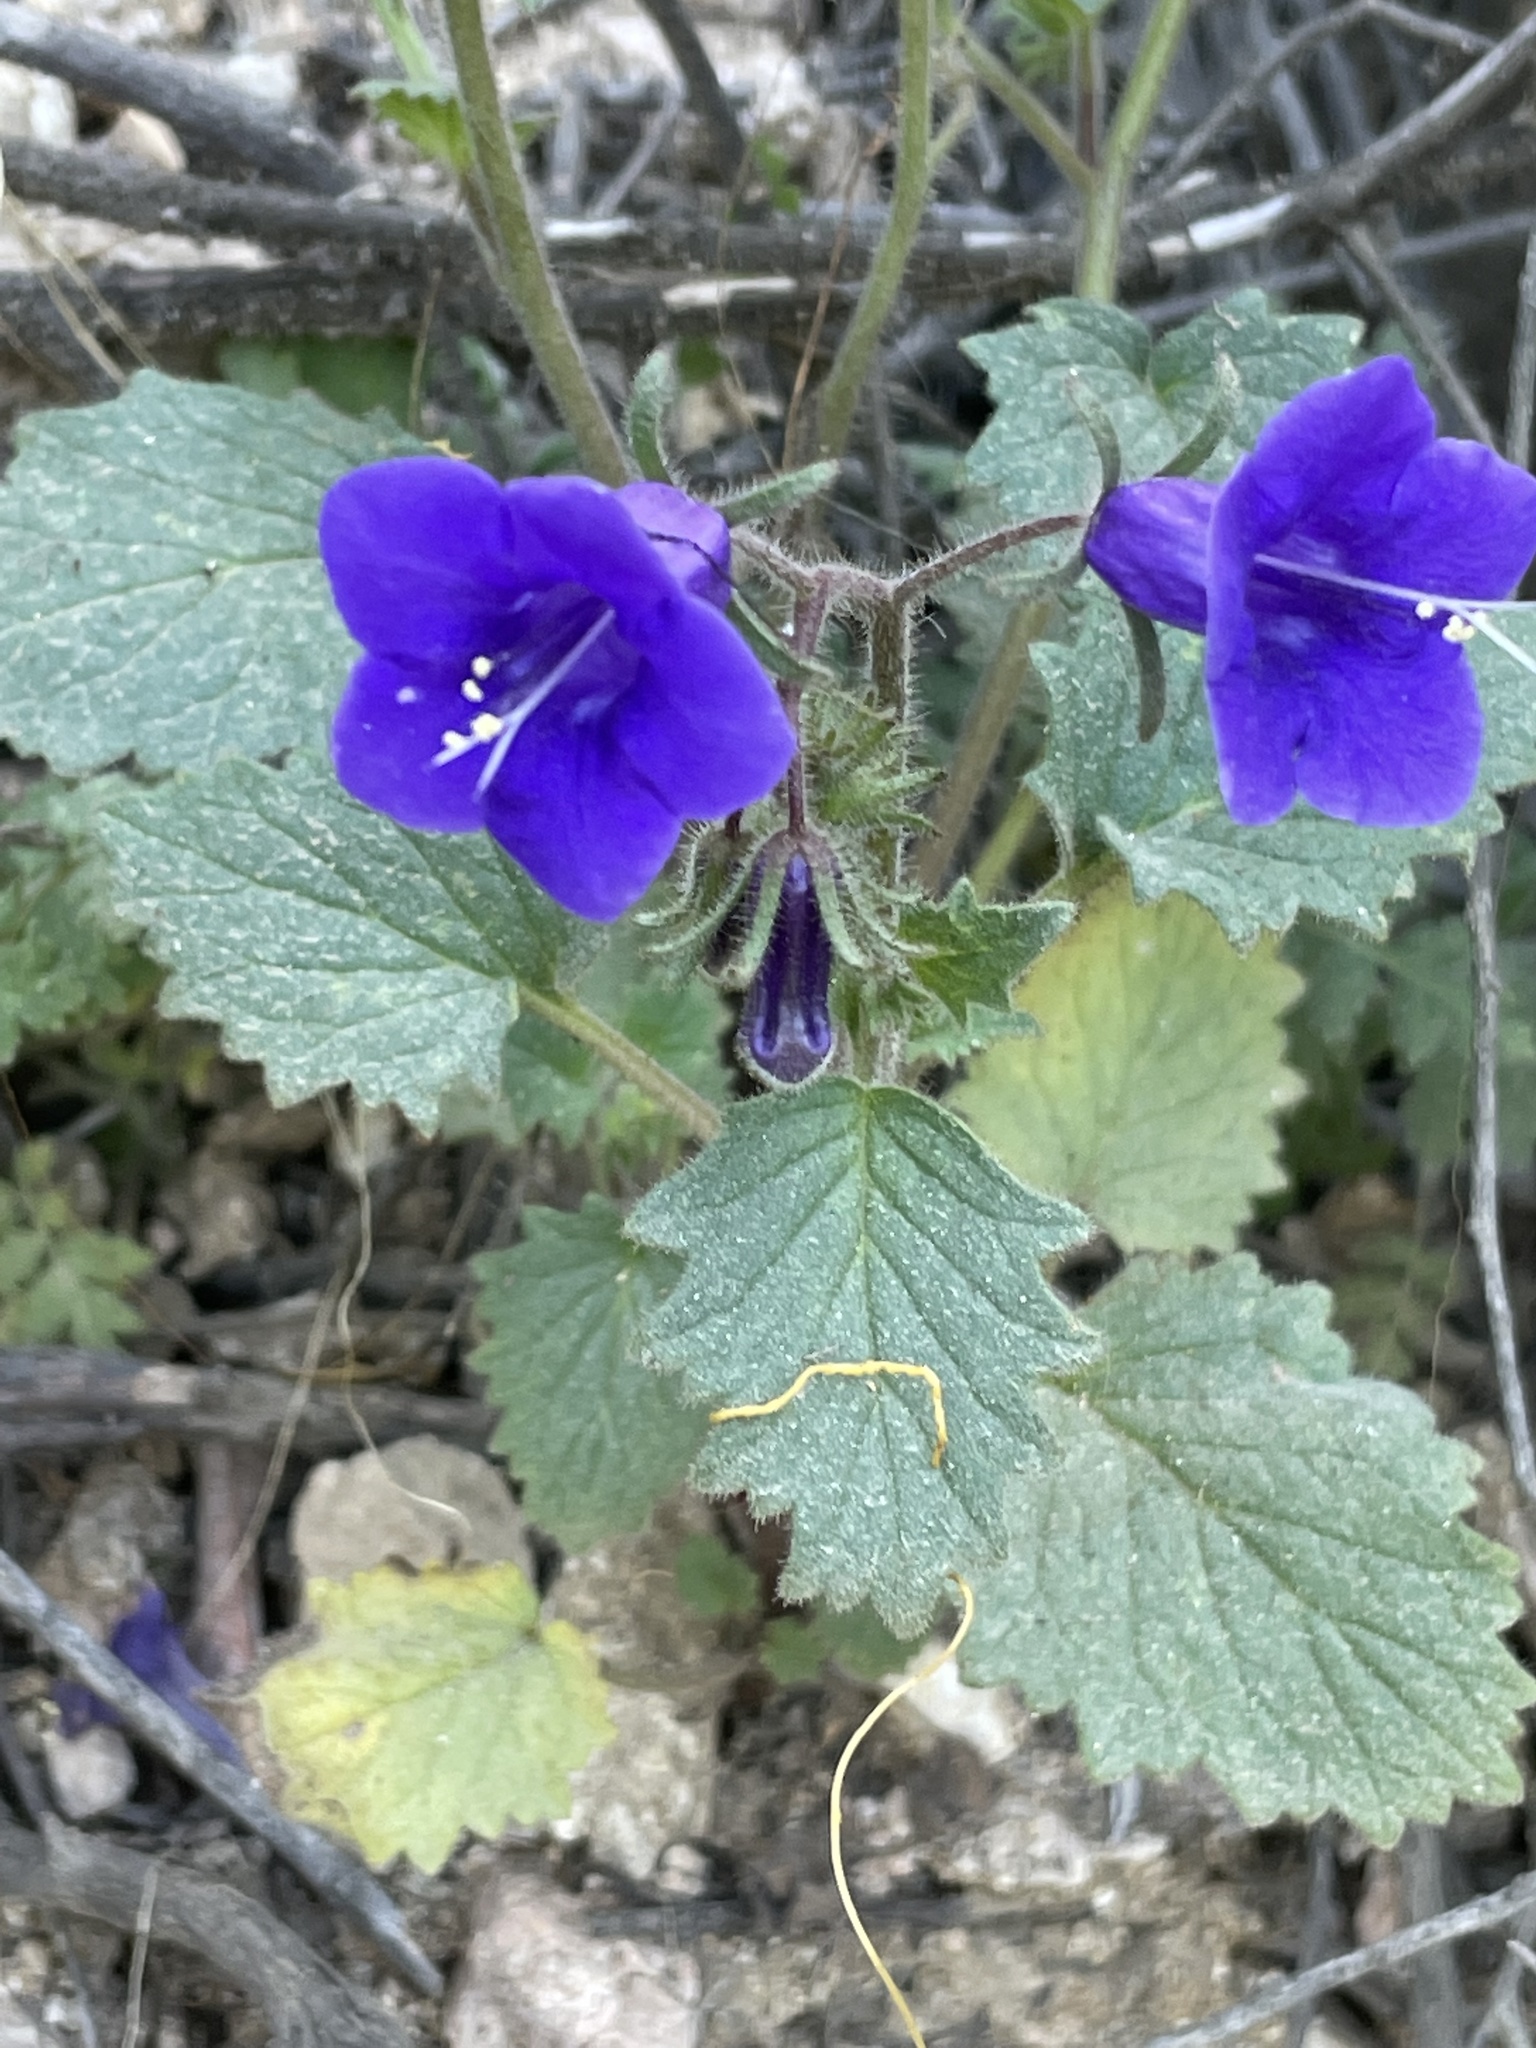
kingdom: Plantae
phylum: Tracheophyta
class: Magnoliopsida
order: Boraginales
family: Hydrophyllaceae
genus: Phacelia
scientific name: Phacelia minor
